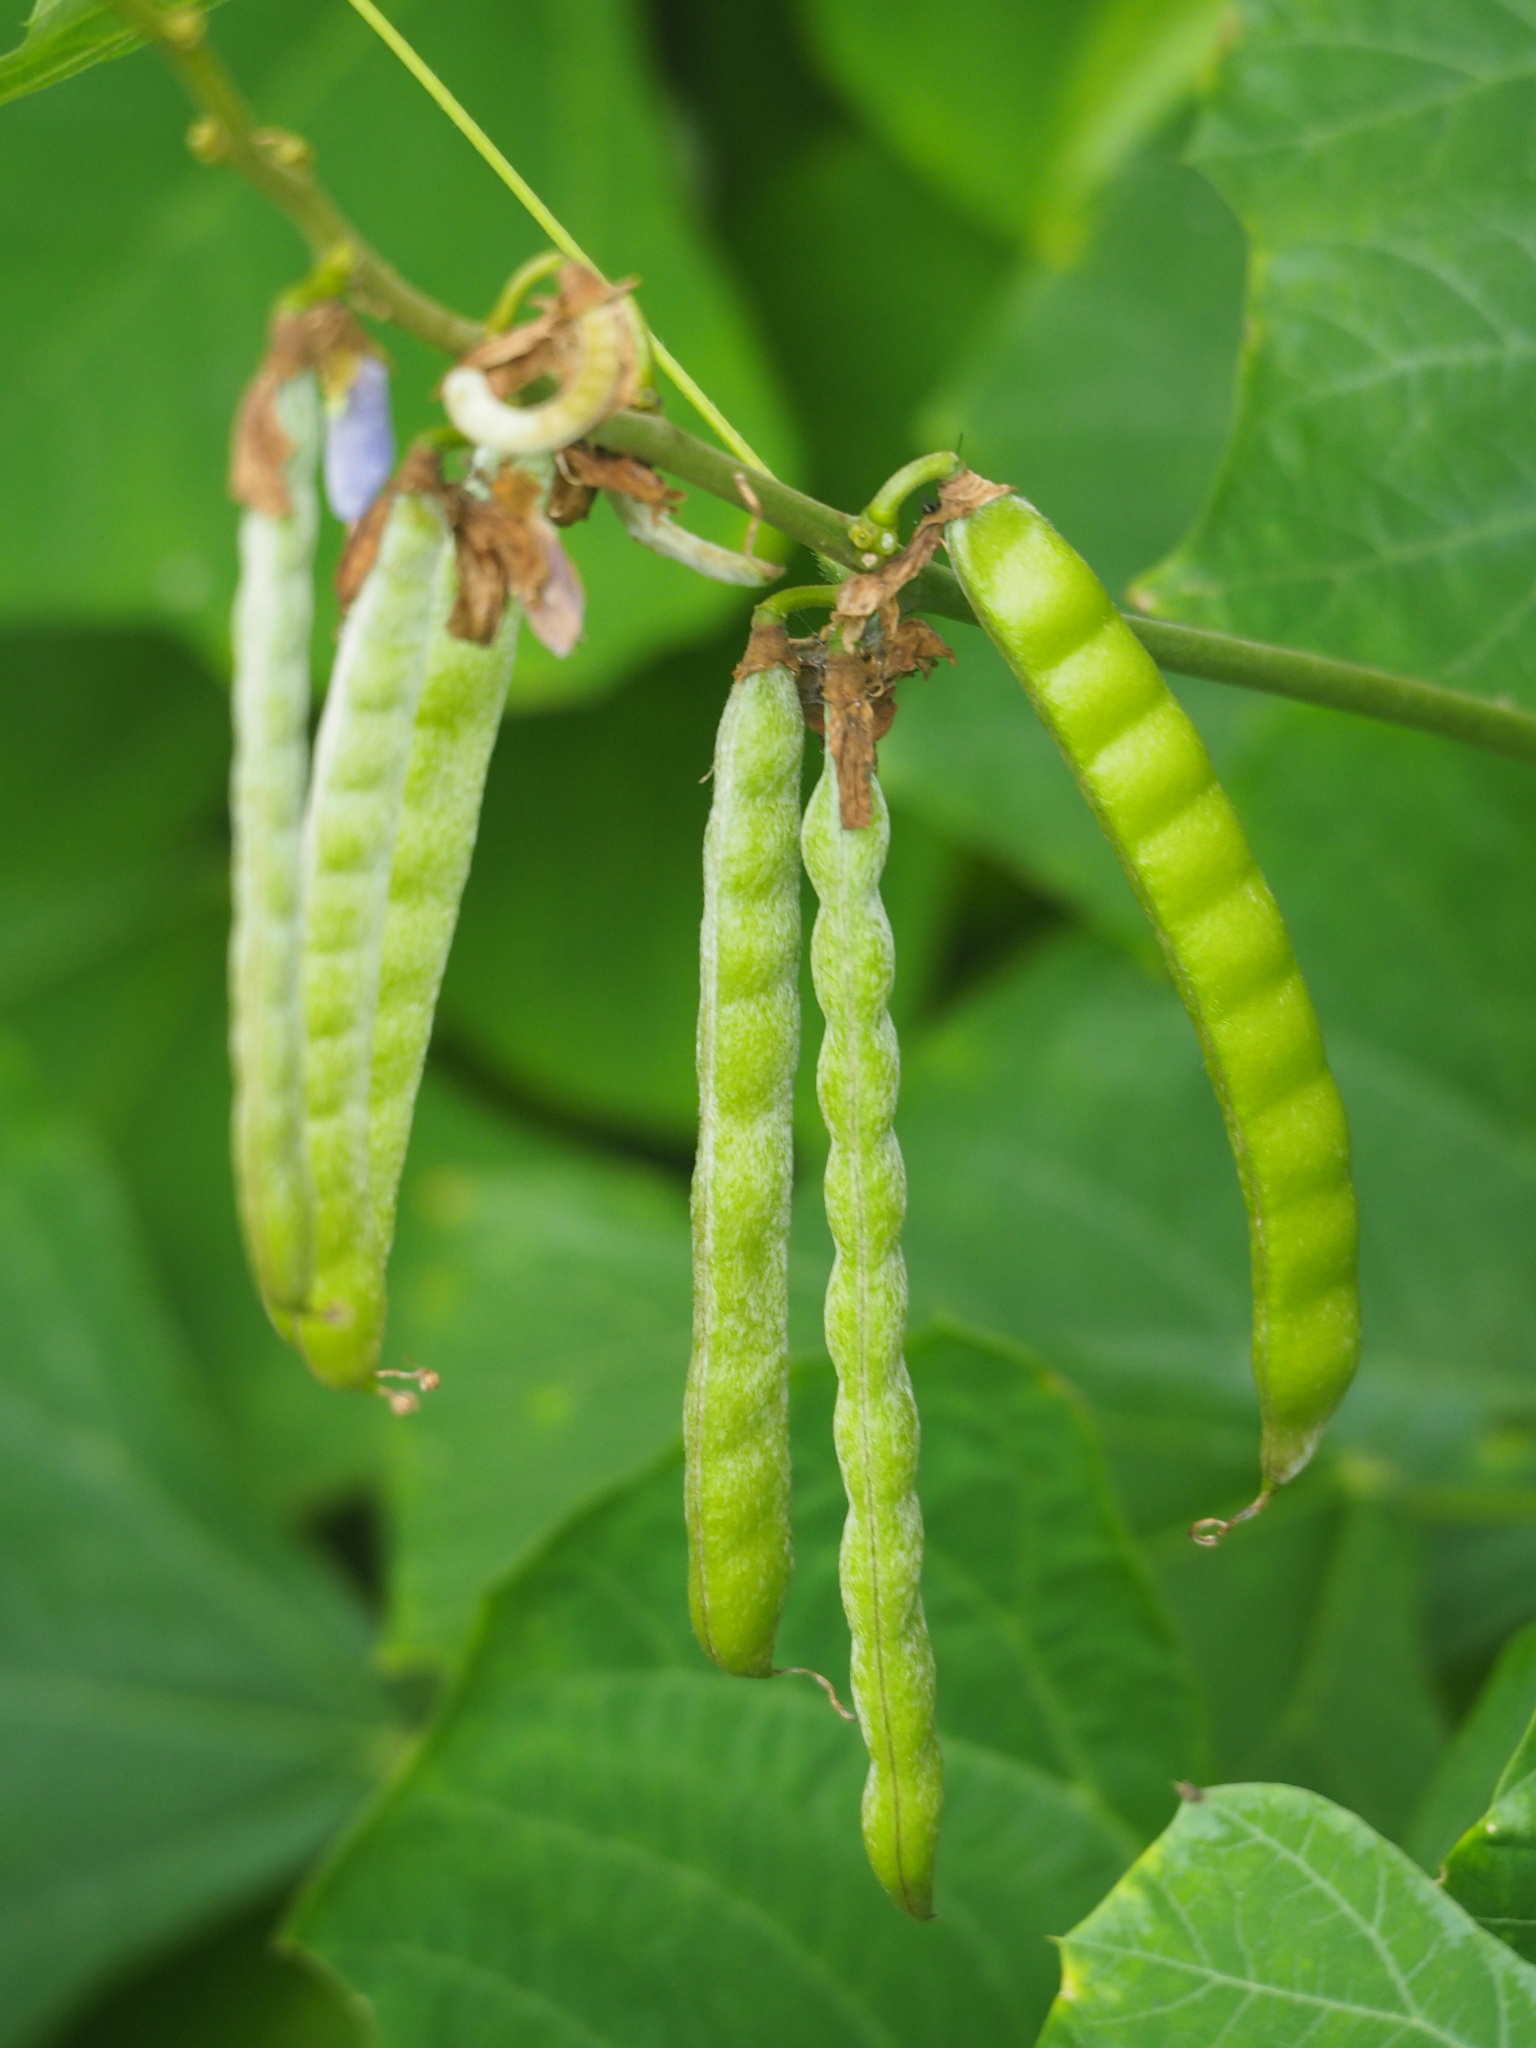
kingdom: Plantae
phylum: Tracheophyta
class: Magnoliopsida
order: Fabales
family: Fabaceae
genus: Pachyrhizus
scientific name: Pachyrhizus erosus
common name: Yam bean
